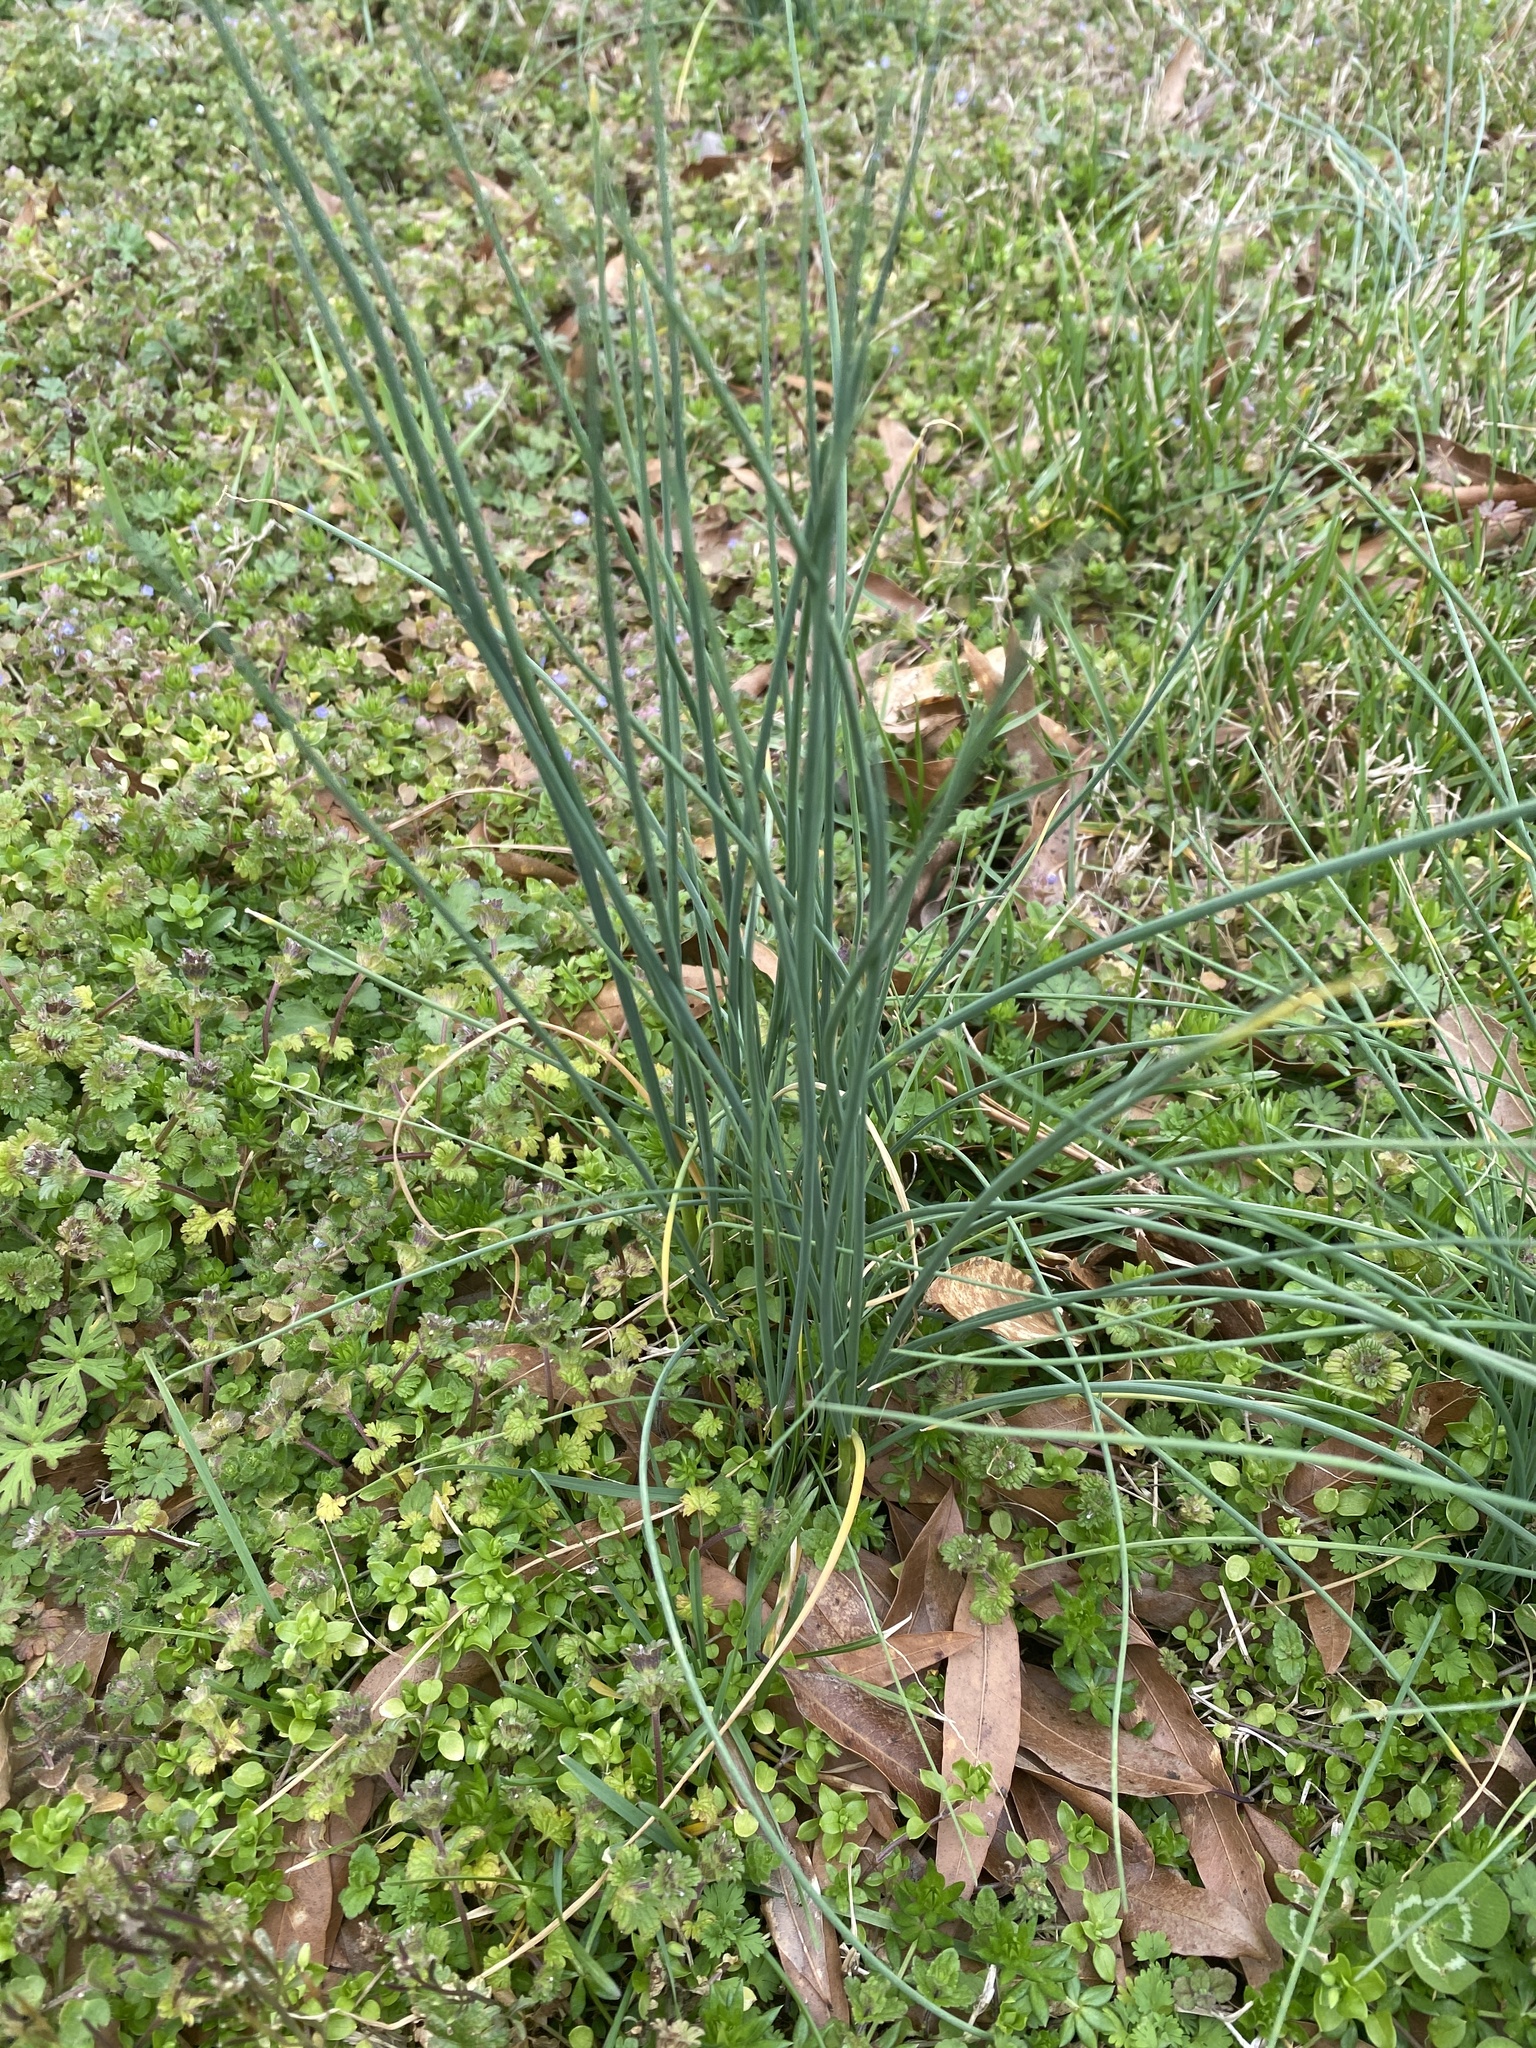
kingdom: Plantae
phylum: Tracheophyta
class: Liliopsida
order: Asparagales
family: Amaryllidaceae
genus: Allium
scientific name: Allium vineale
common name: Crow garlic
